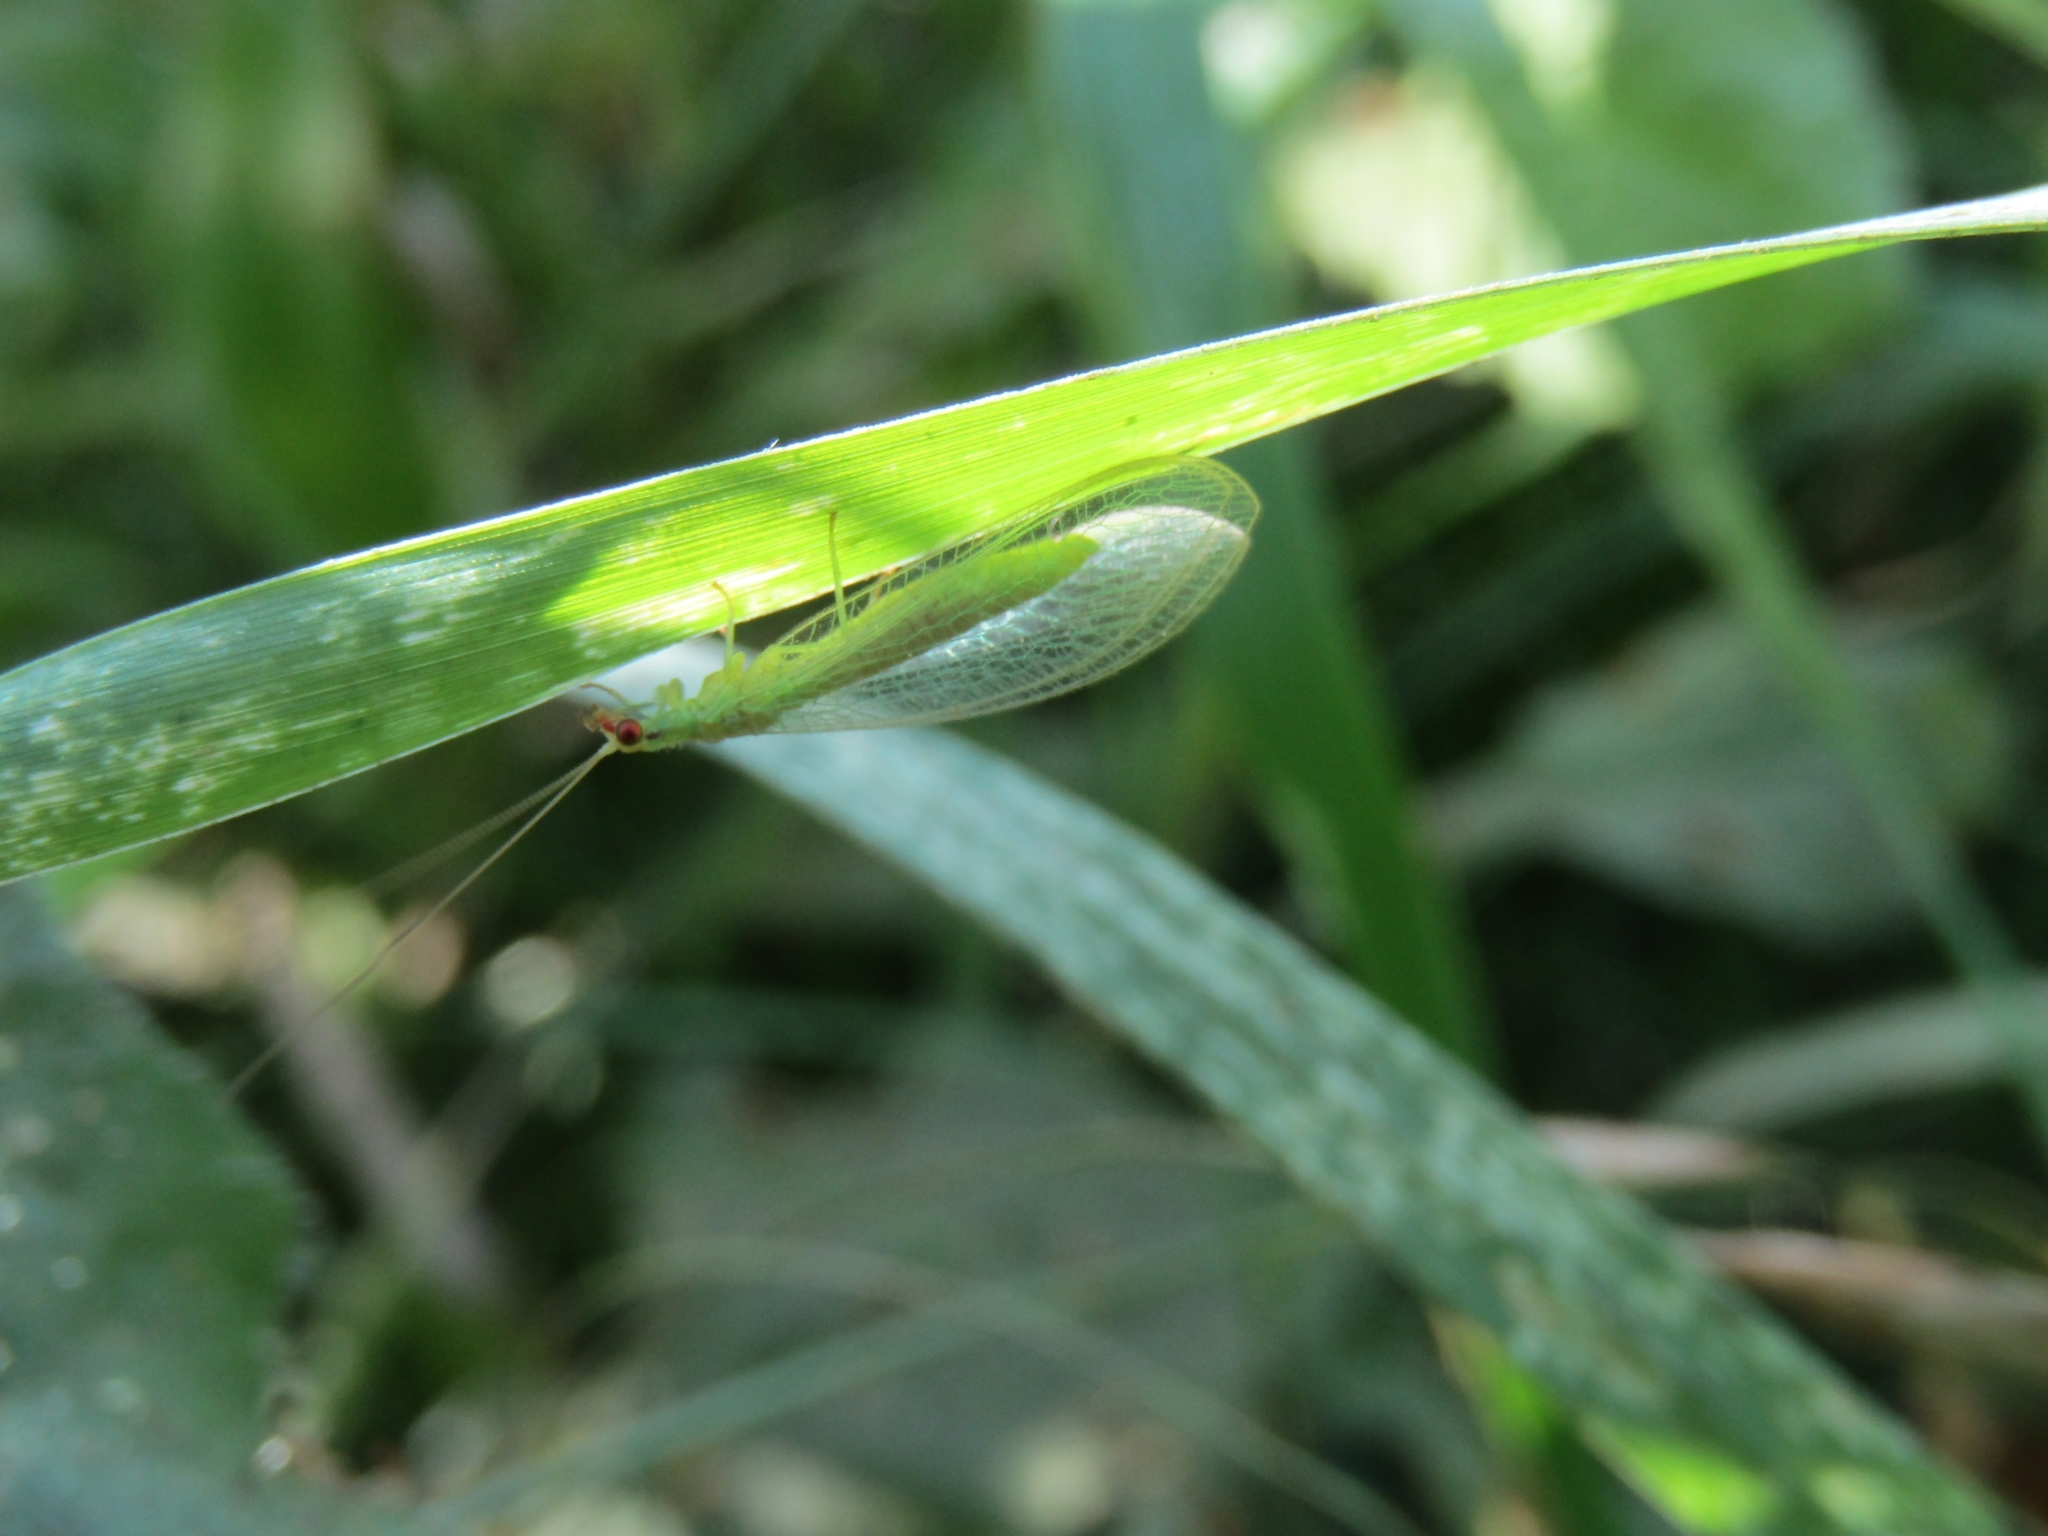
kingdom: Animalia
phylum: Arthropoda
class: Insecta
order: Neuroptera
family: Chrysopidae
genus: Chrysoperla
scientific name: Chrysoperla externa
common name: Green lacewing
